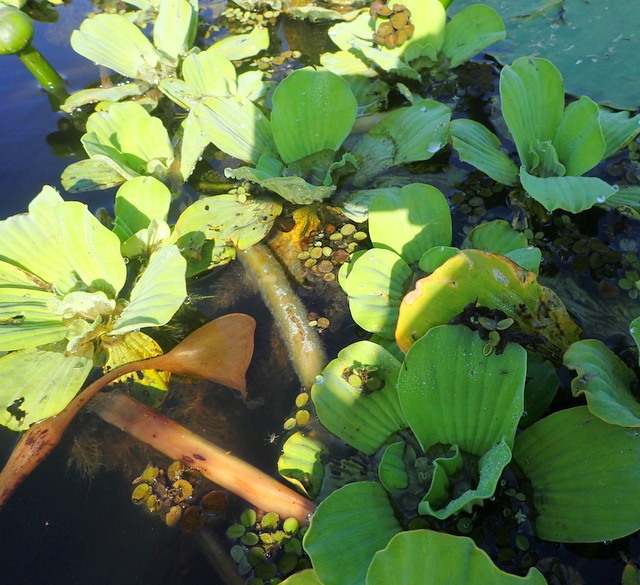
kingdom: Plantae
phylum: Tracheophyta
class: Liliopsida
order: Alismatales
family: Araceae
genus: Pistia
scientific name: Pistia stratiotes
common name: Water lettuce
